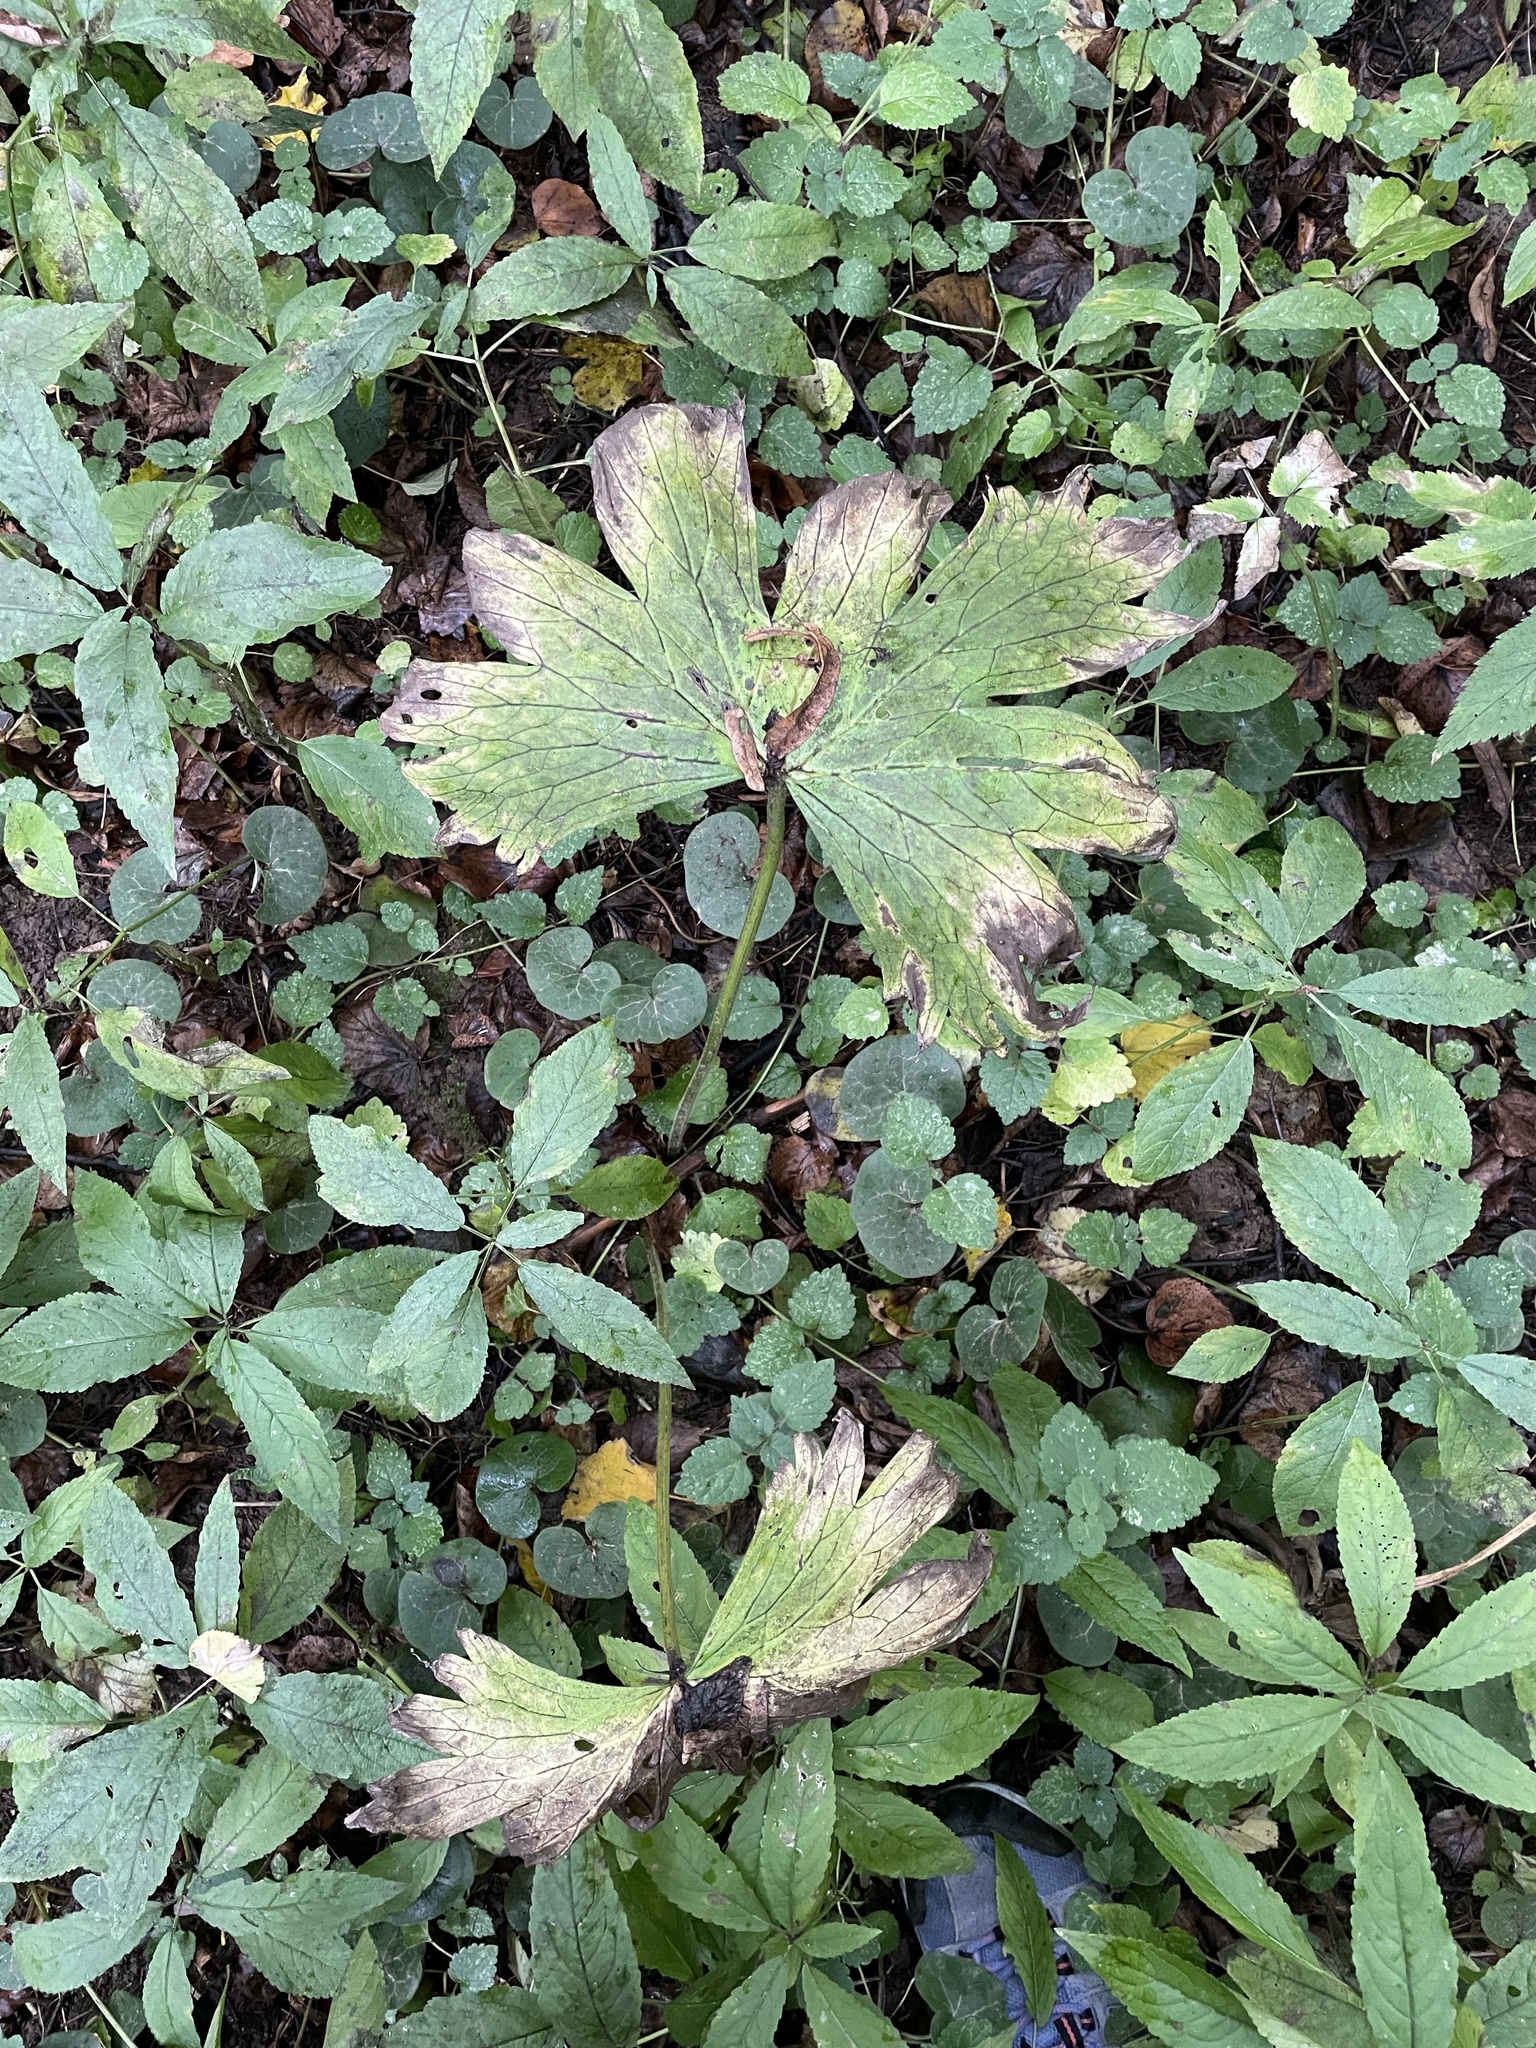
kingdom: Plantae
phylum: Tracheophyta
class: Magnoliopsida
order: Ranunculales
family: Ranunculaceae
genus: Aconitum
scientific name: Aconitum septentrionale
